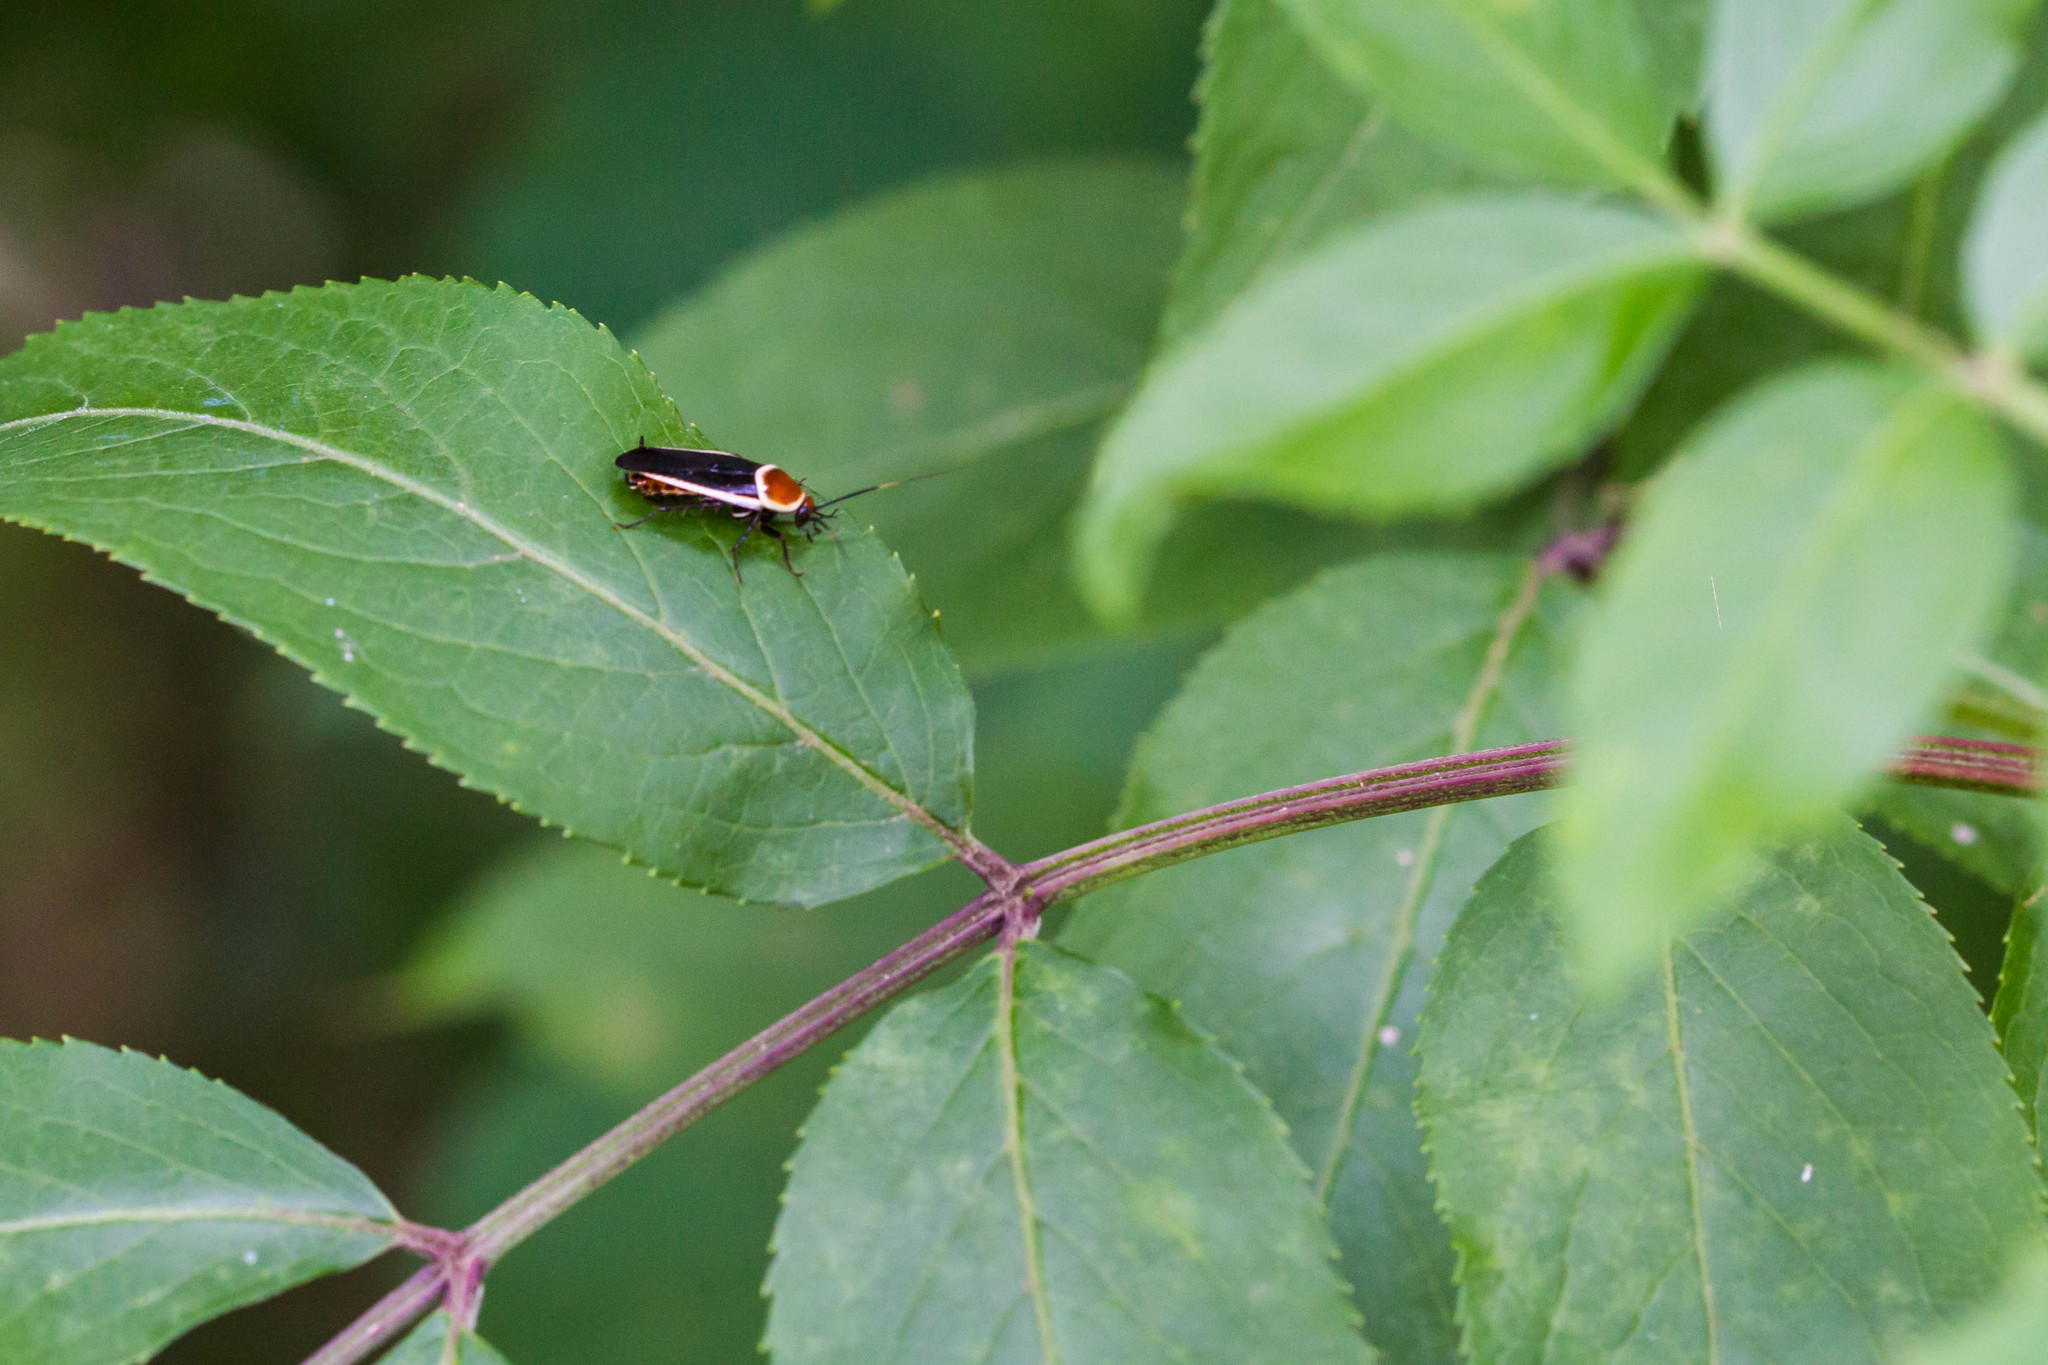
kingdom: Animalia
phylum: Arthropoda
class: Insecta
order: Blattodea
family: Ectobiidae
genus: Pseudomops
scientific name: Pseudomops septentrionalis
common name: Pale-bordered field cockroach
